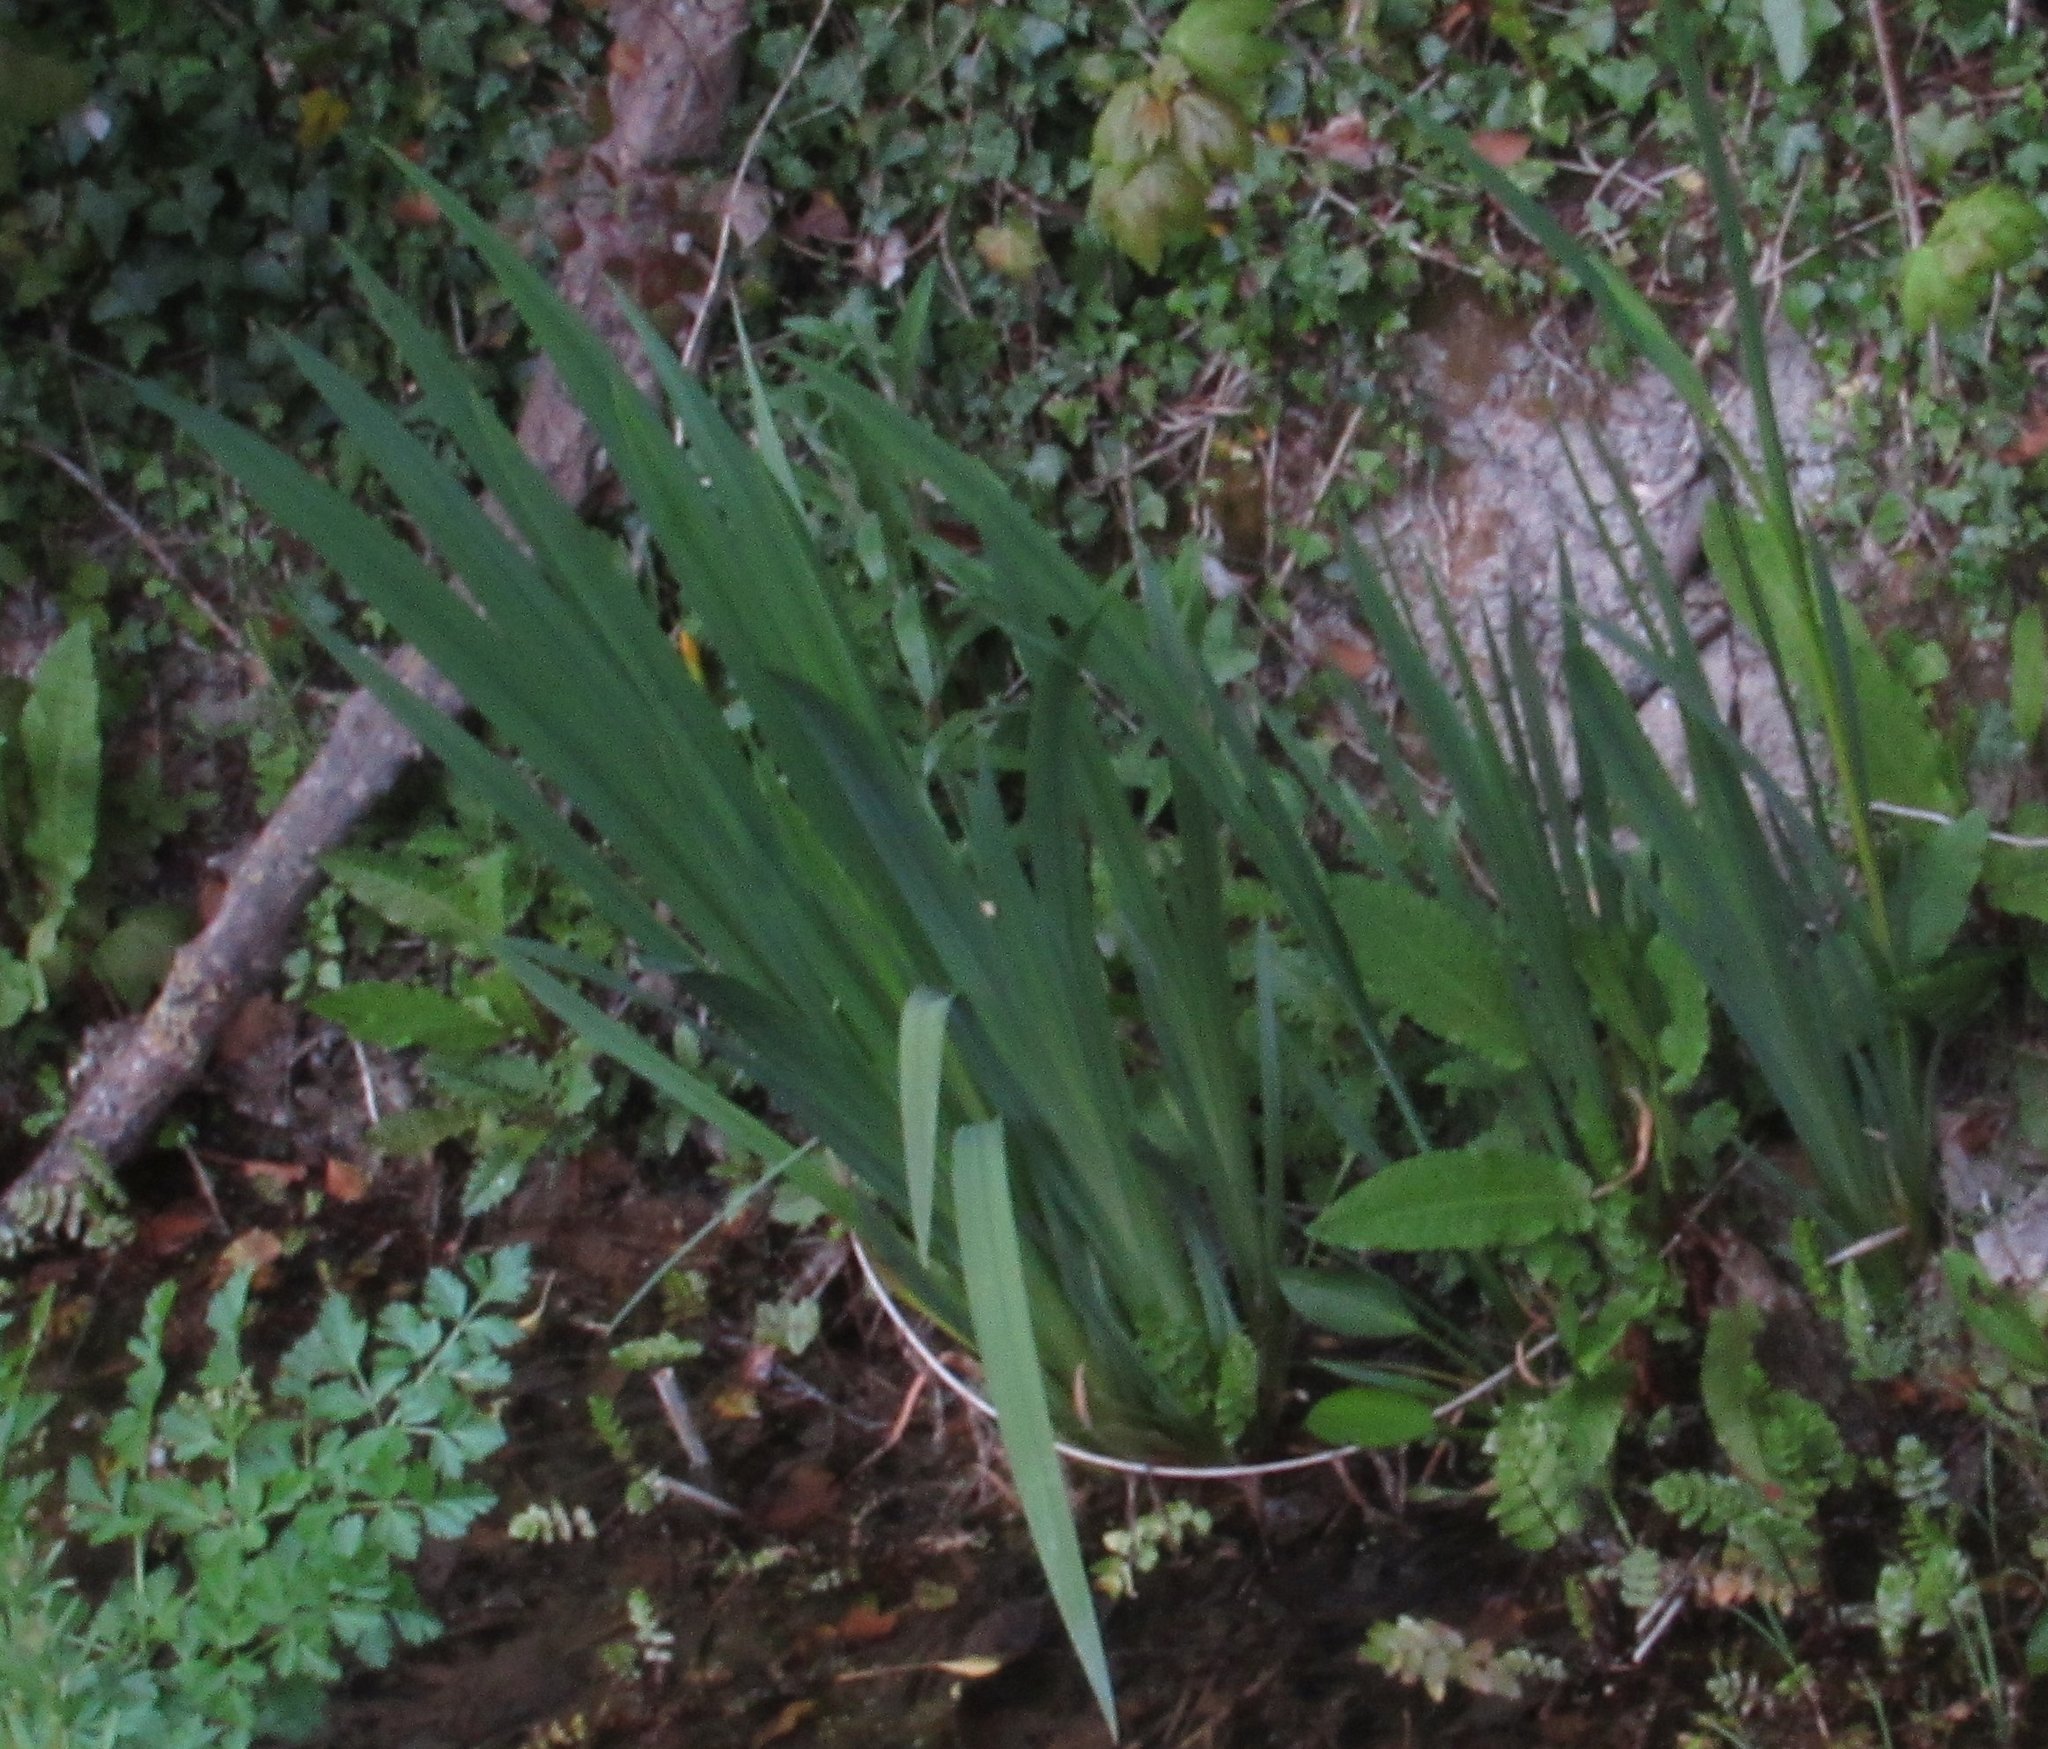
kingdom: Plantae
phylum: Tracheophyta
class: Liliopsida
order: Asparagales
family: Iridaceae
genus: Iris
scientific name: Iris pseudacorus
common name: Yellow flag
